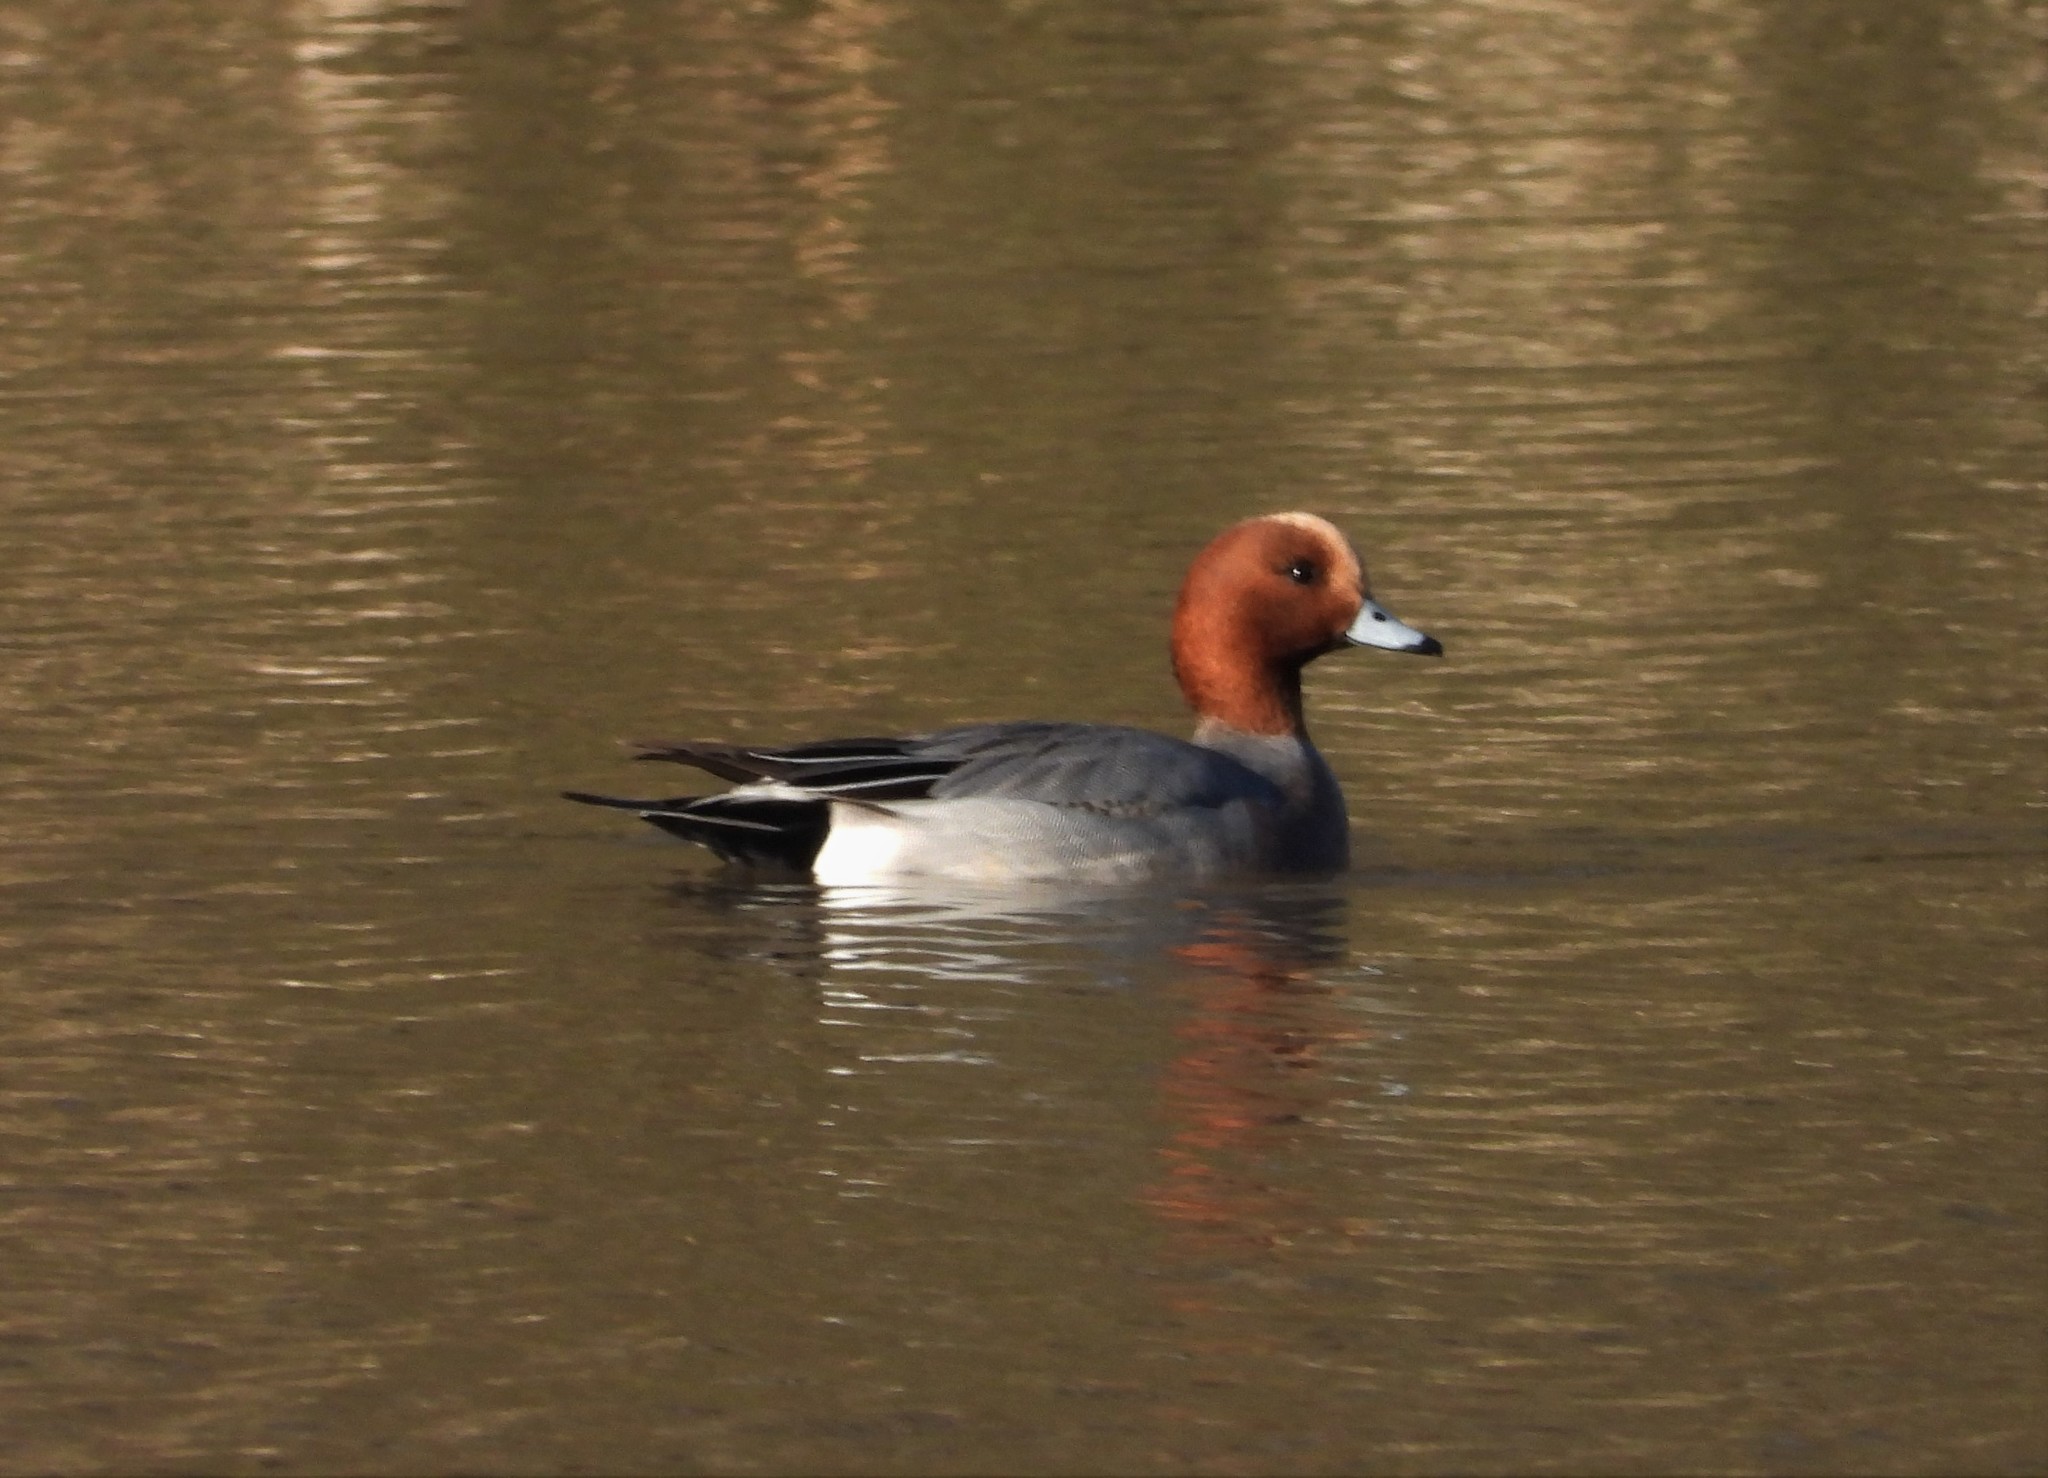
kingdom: Animalia
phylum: Chordata
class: Aves
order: Anseriformes
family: Anatidae
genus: Mareca
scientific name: Mareca penelope
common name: Eurasian wigeon
